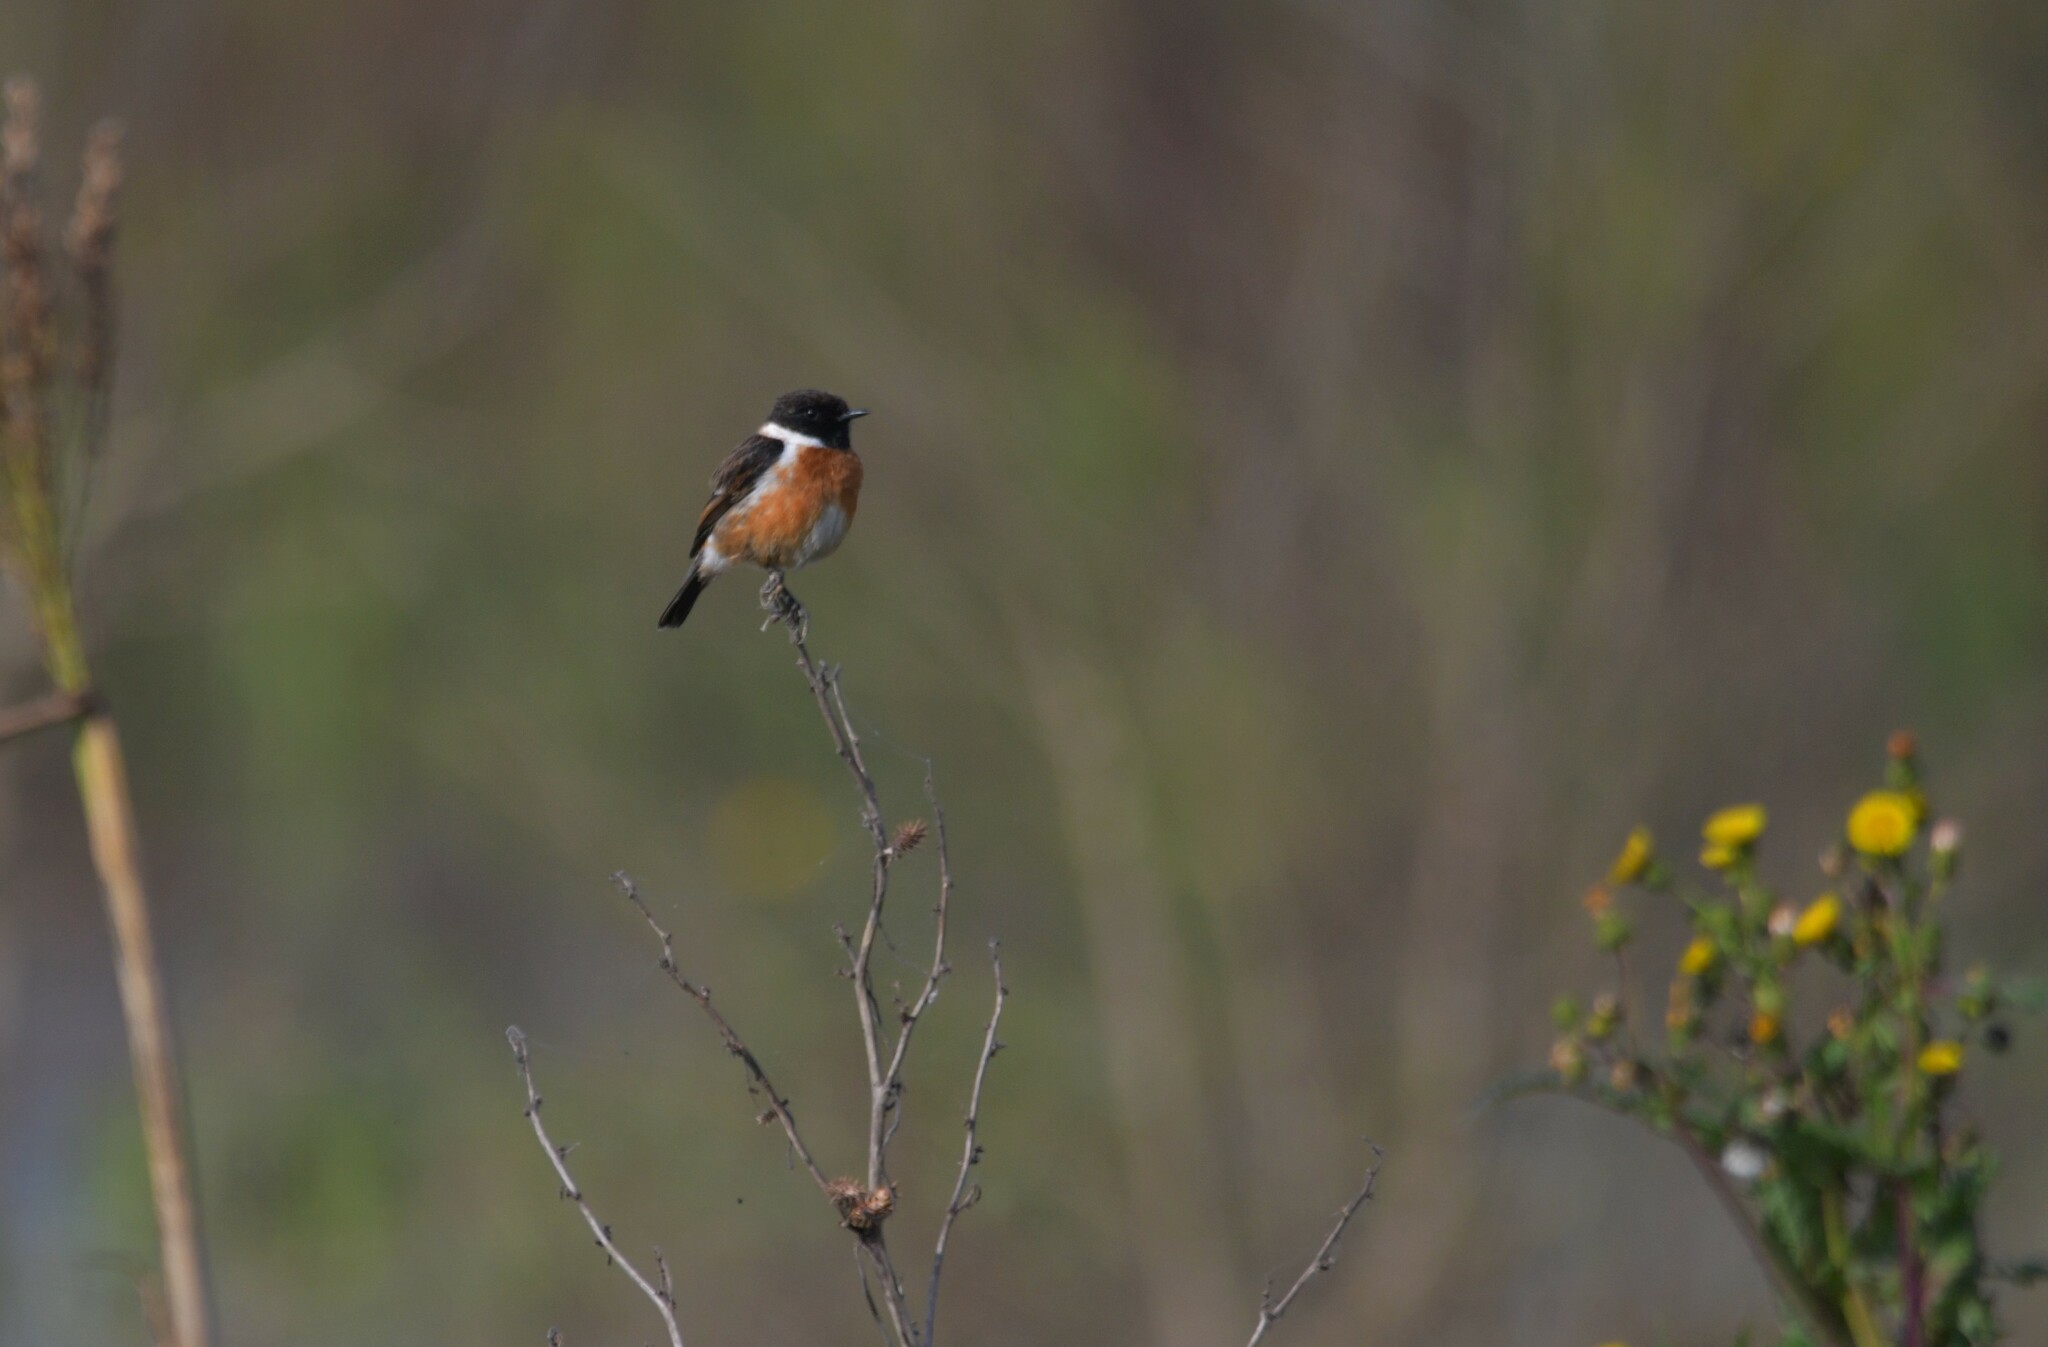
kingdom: Animalia
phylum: Chordata
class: Aves
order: Passeriformes
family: Muscicapidae
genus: Saxicola
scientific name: Saxicola rubicola
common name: European stonechat
